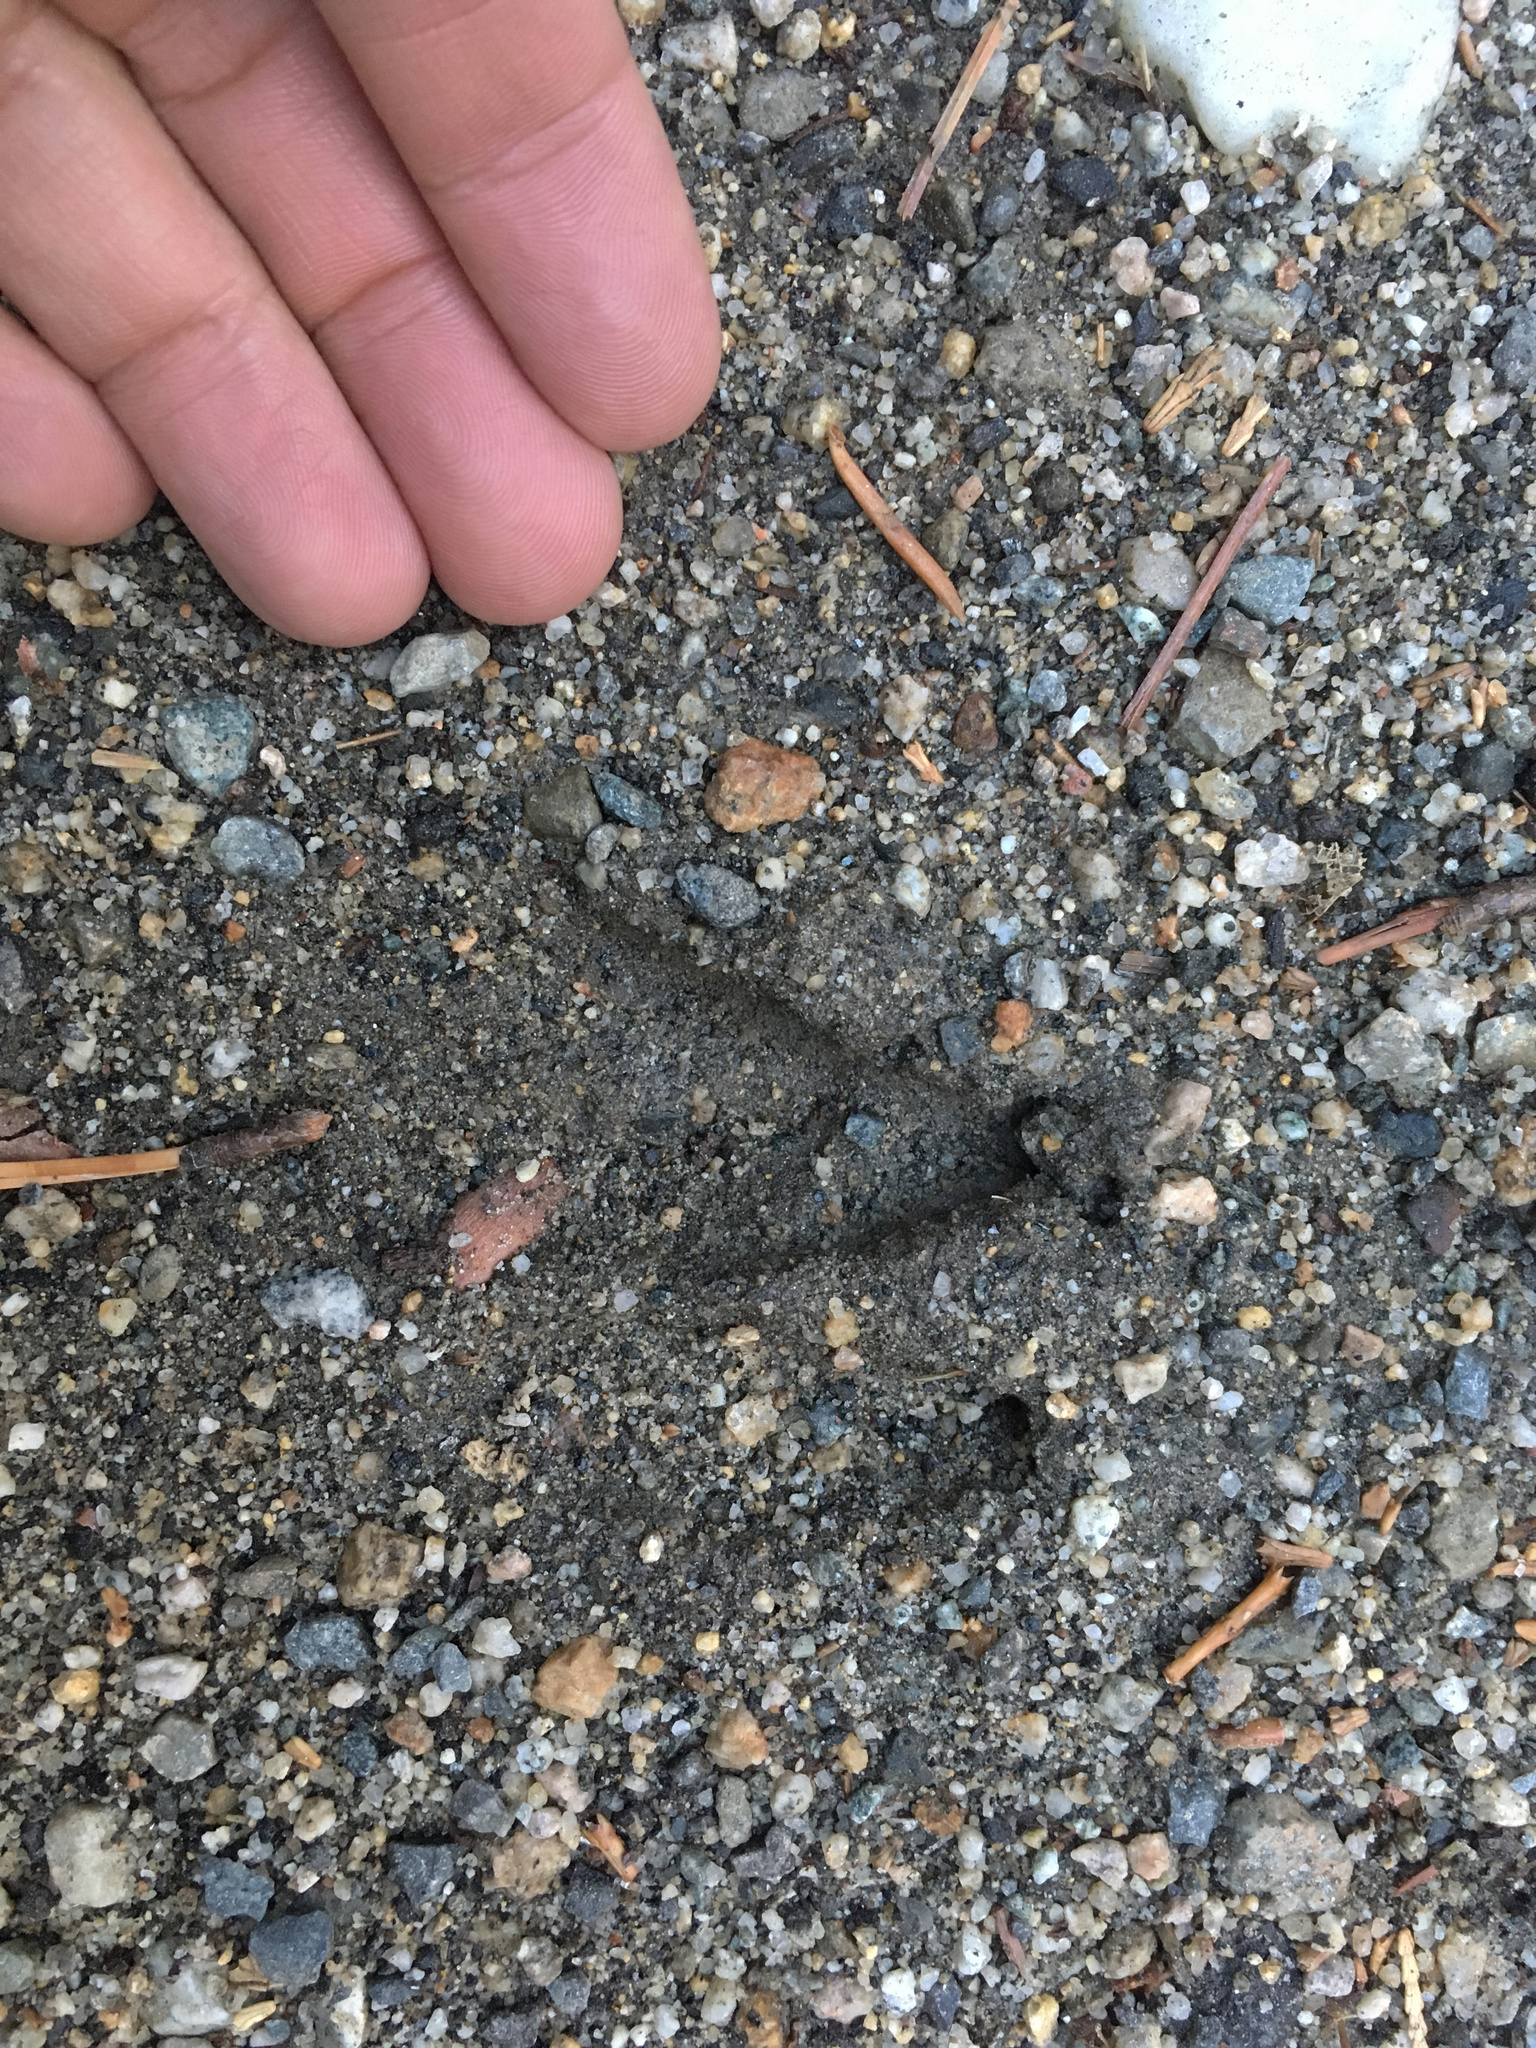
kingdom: Animalia
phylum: Chordata
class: Mammalia
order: Artiodactyla
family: Cervidae
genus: Odocoileus
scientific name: Odocoileus hemionus
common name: Mule deer
